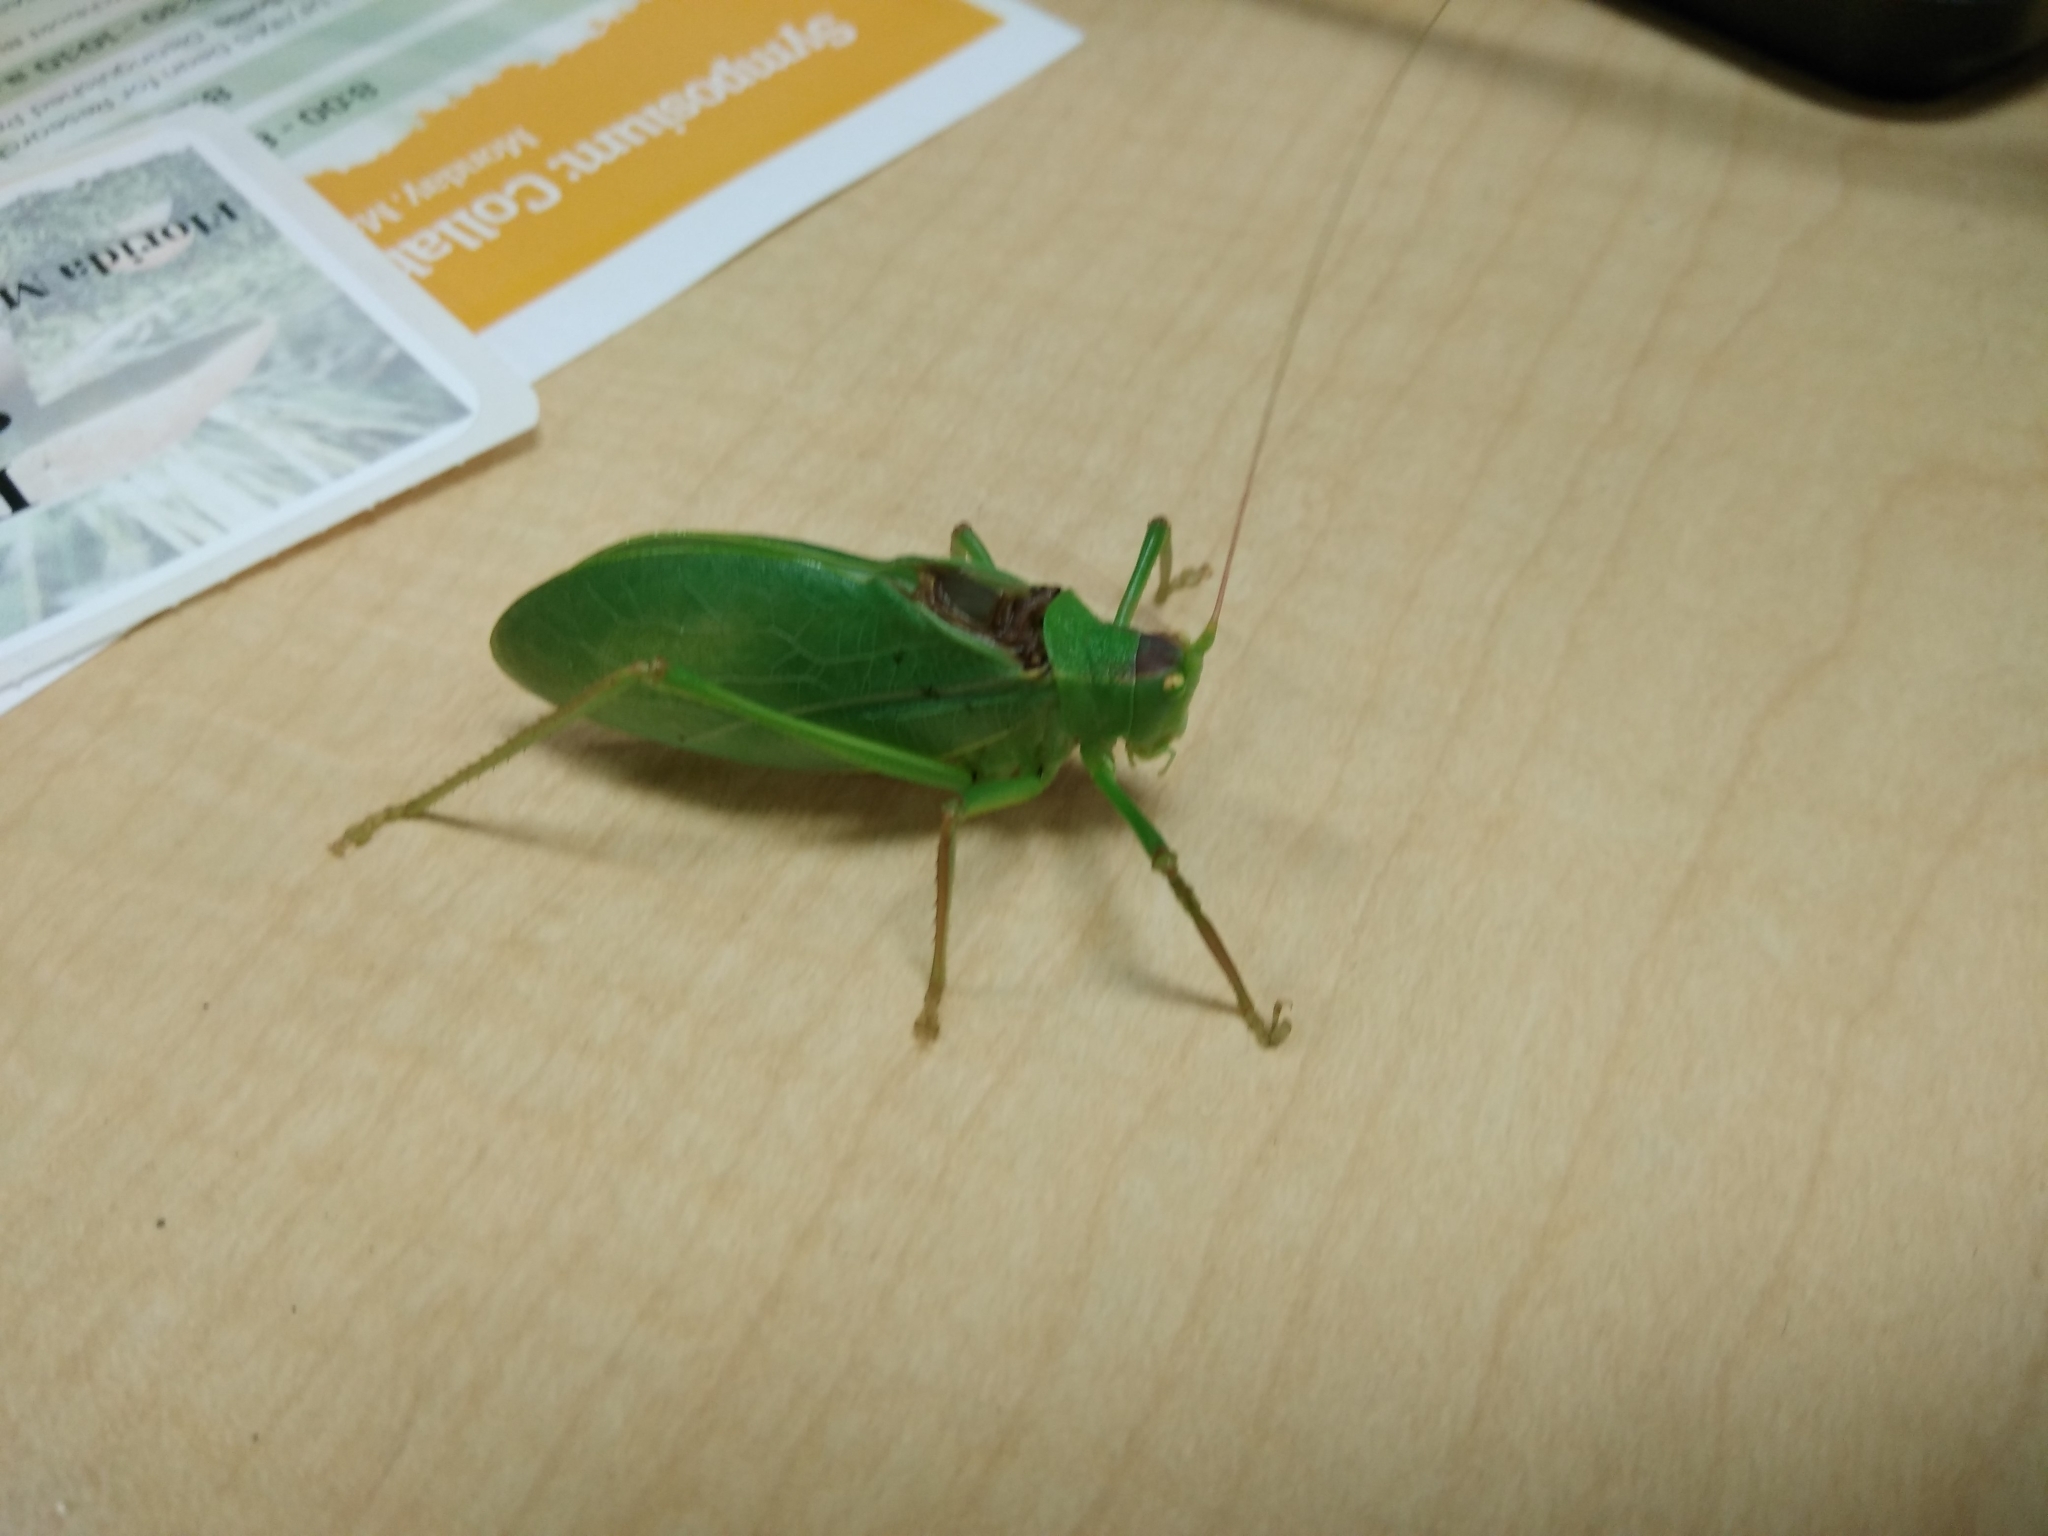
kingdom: Animalia
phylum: Arthropoda
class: Insecta
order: Orthoptera
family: Tettigoniidae
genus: Lea
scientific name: Lea floridensis
